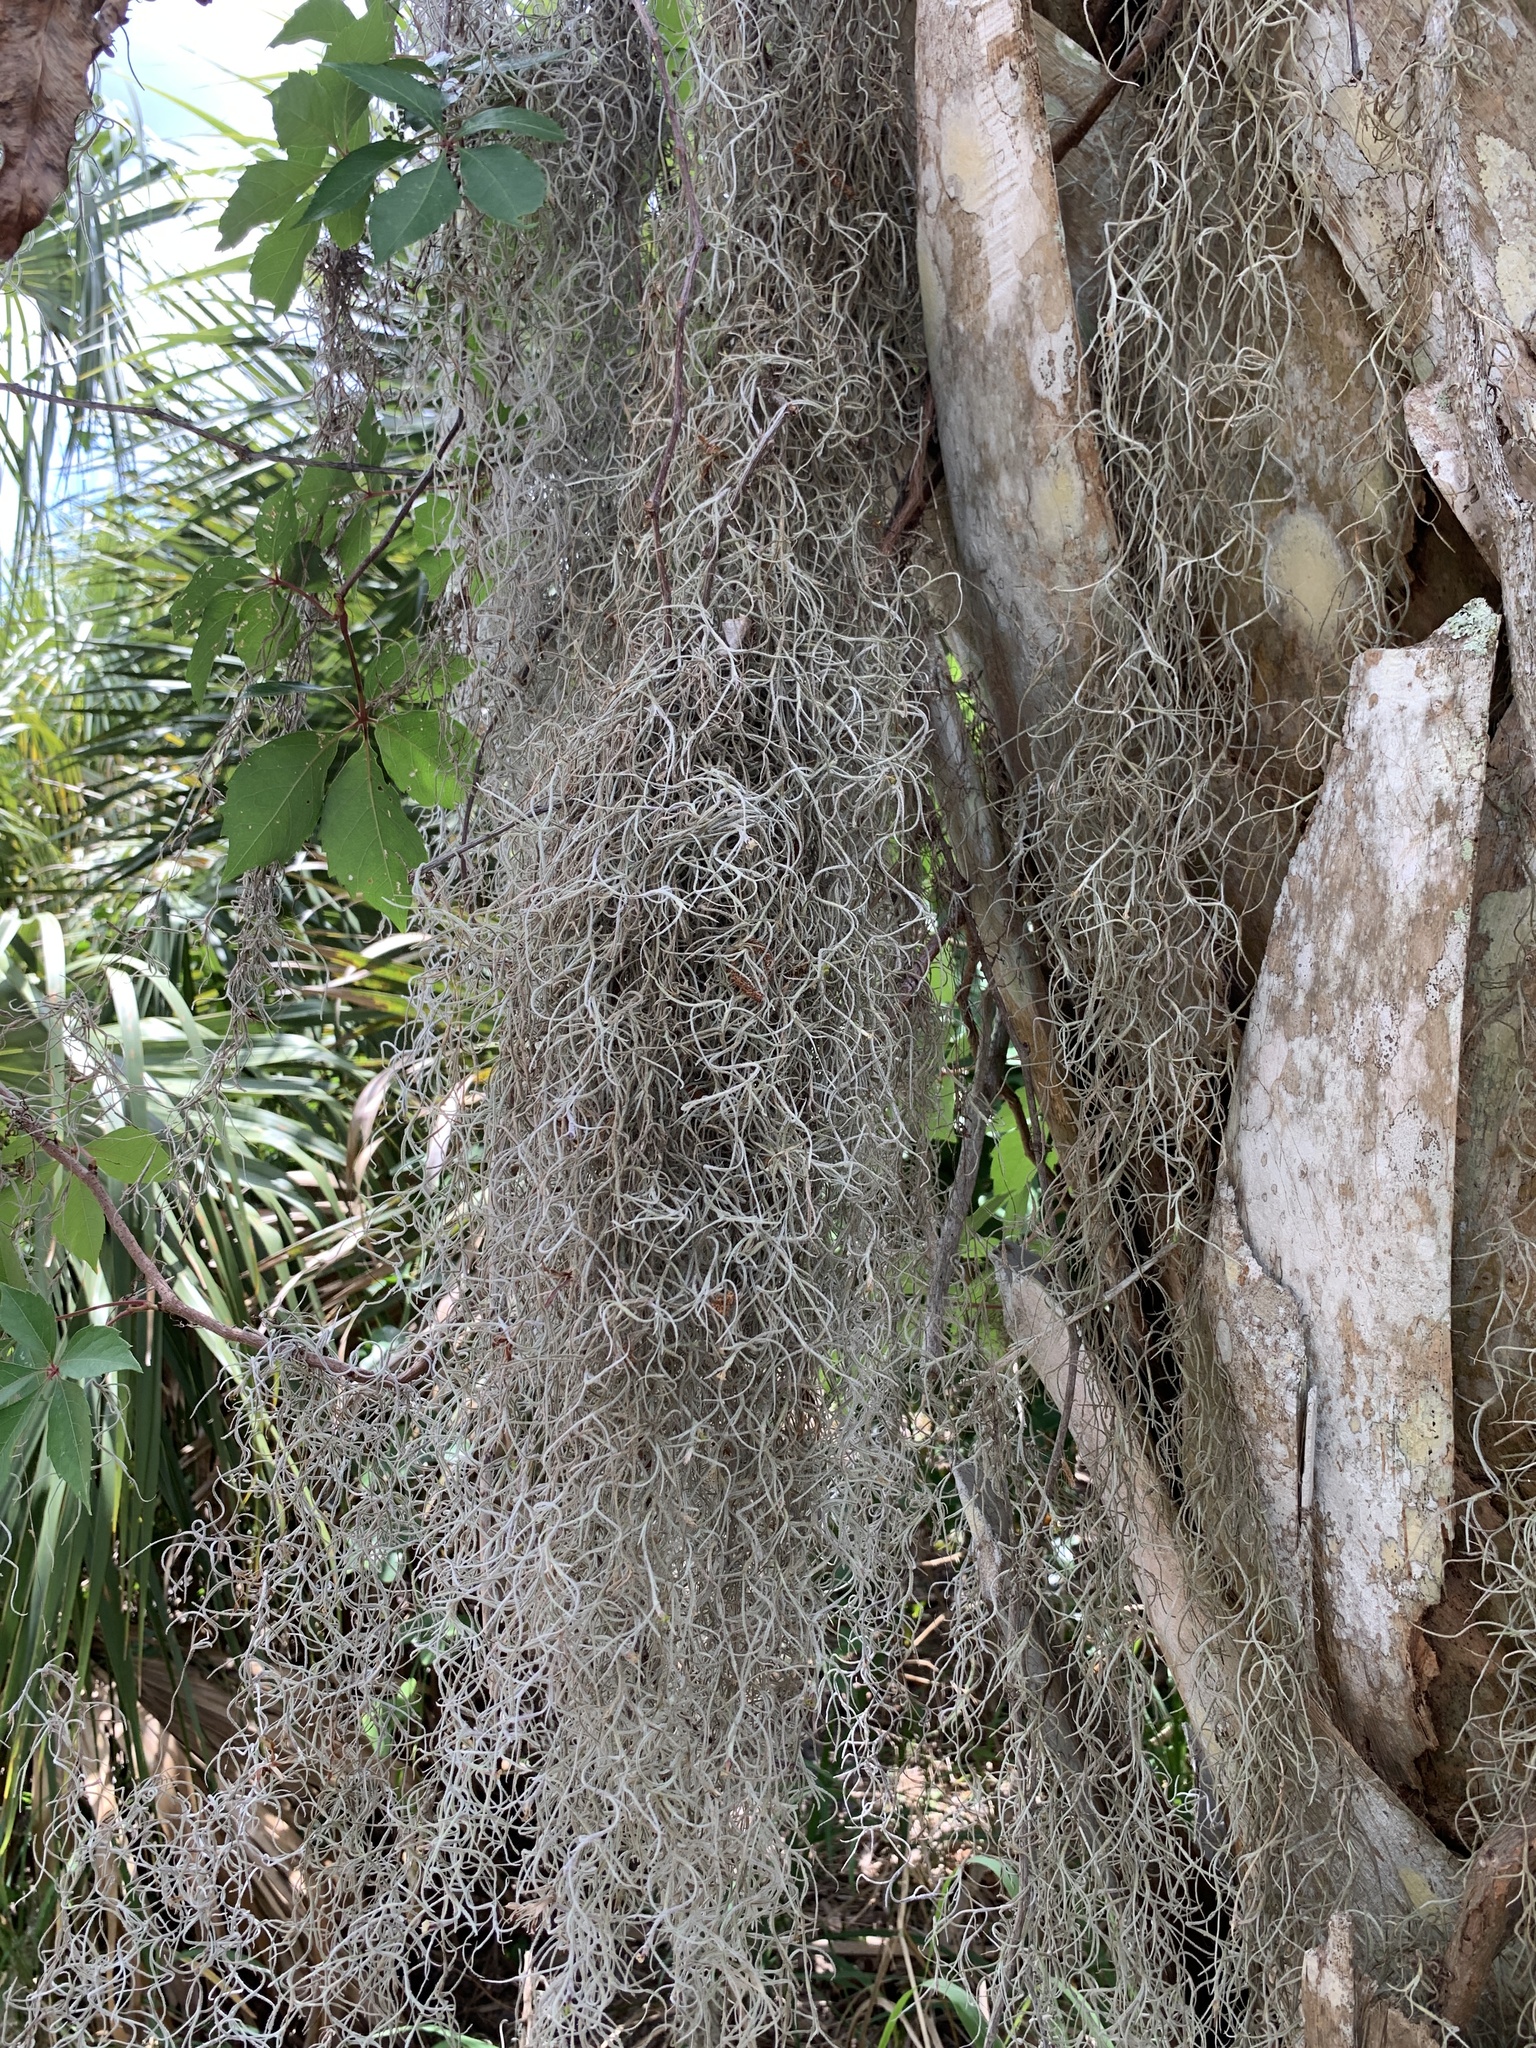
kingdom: Plantae
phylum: Tracheophyta
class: Liliopsida
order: Poales
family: Bromeliaceae
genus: Tillandsia
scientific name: Tillandsia usneoides
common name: Spanish moss
